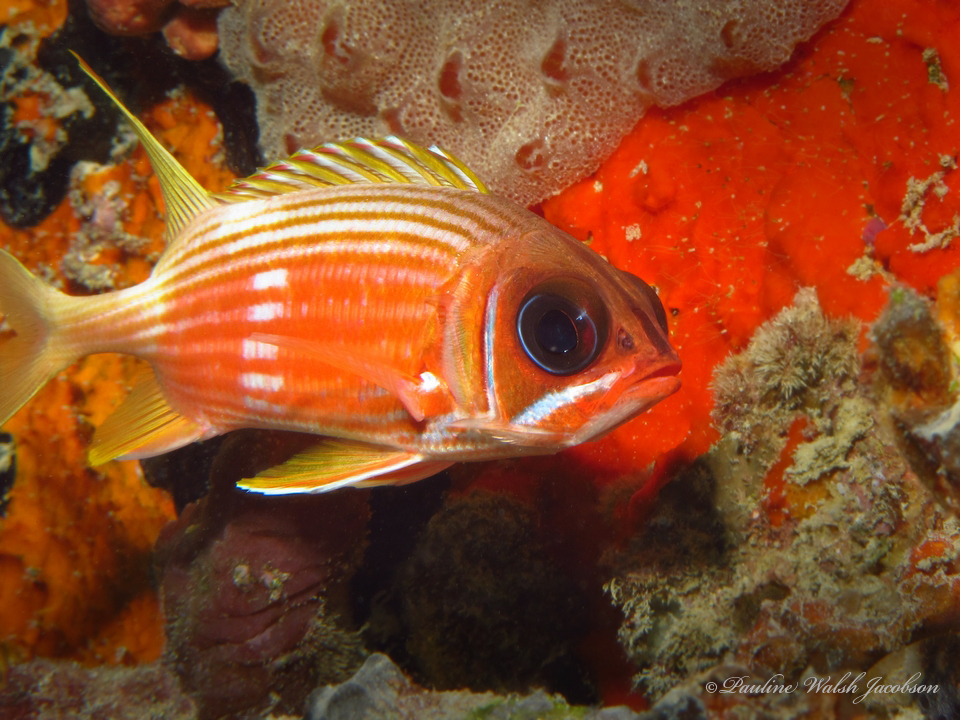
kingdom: Animalia
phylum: Chordata
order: Beryciformes
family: Holocentridae
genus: Holocentrus
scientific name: Holocentrus rufus
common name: Longspine squirrelfish
